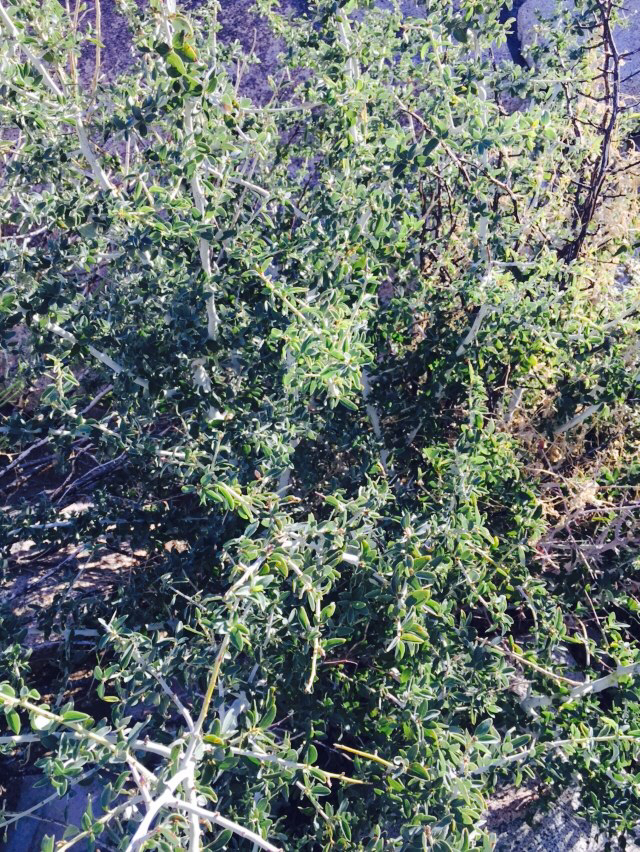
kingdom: Plantae
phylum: Tracheophyta
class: Magnoliopsida
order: Rosales
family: Rhamnaceae
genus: Ceanothus
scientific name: Ceanothus leucodermis
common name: Chaparral whitethorn
